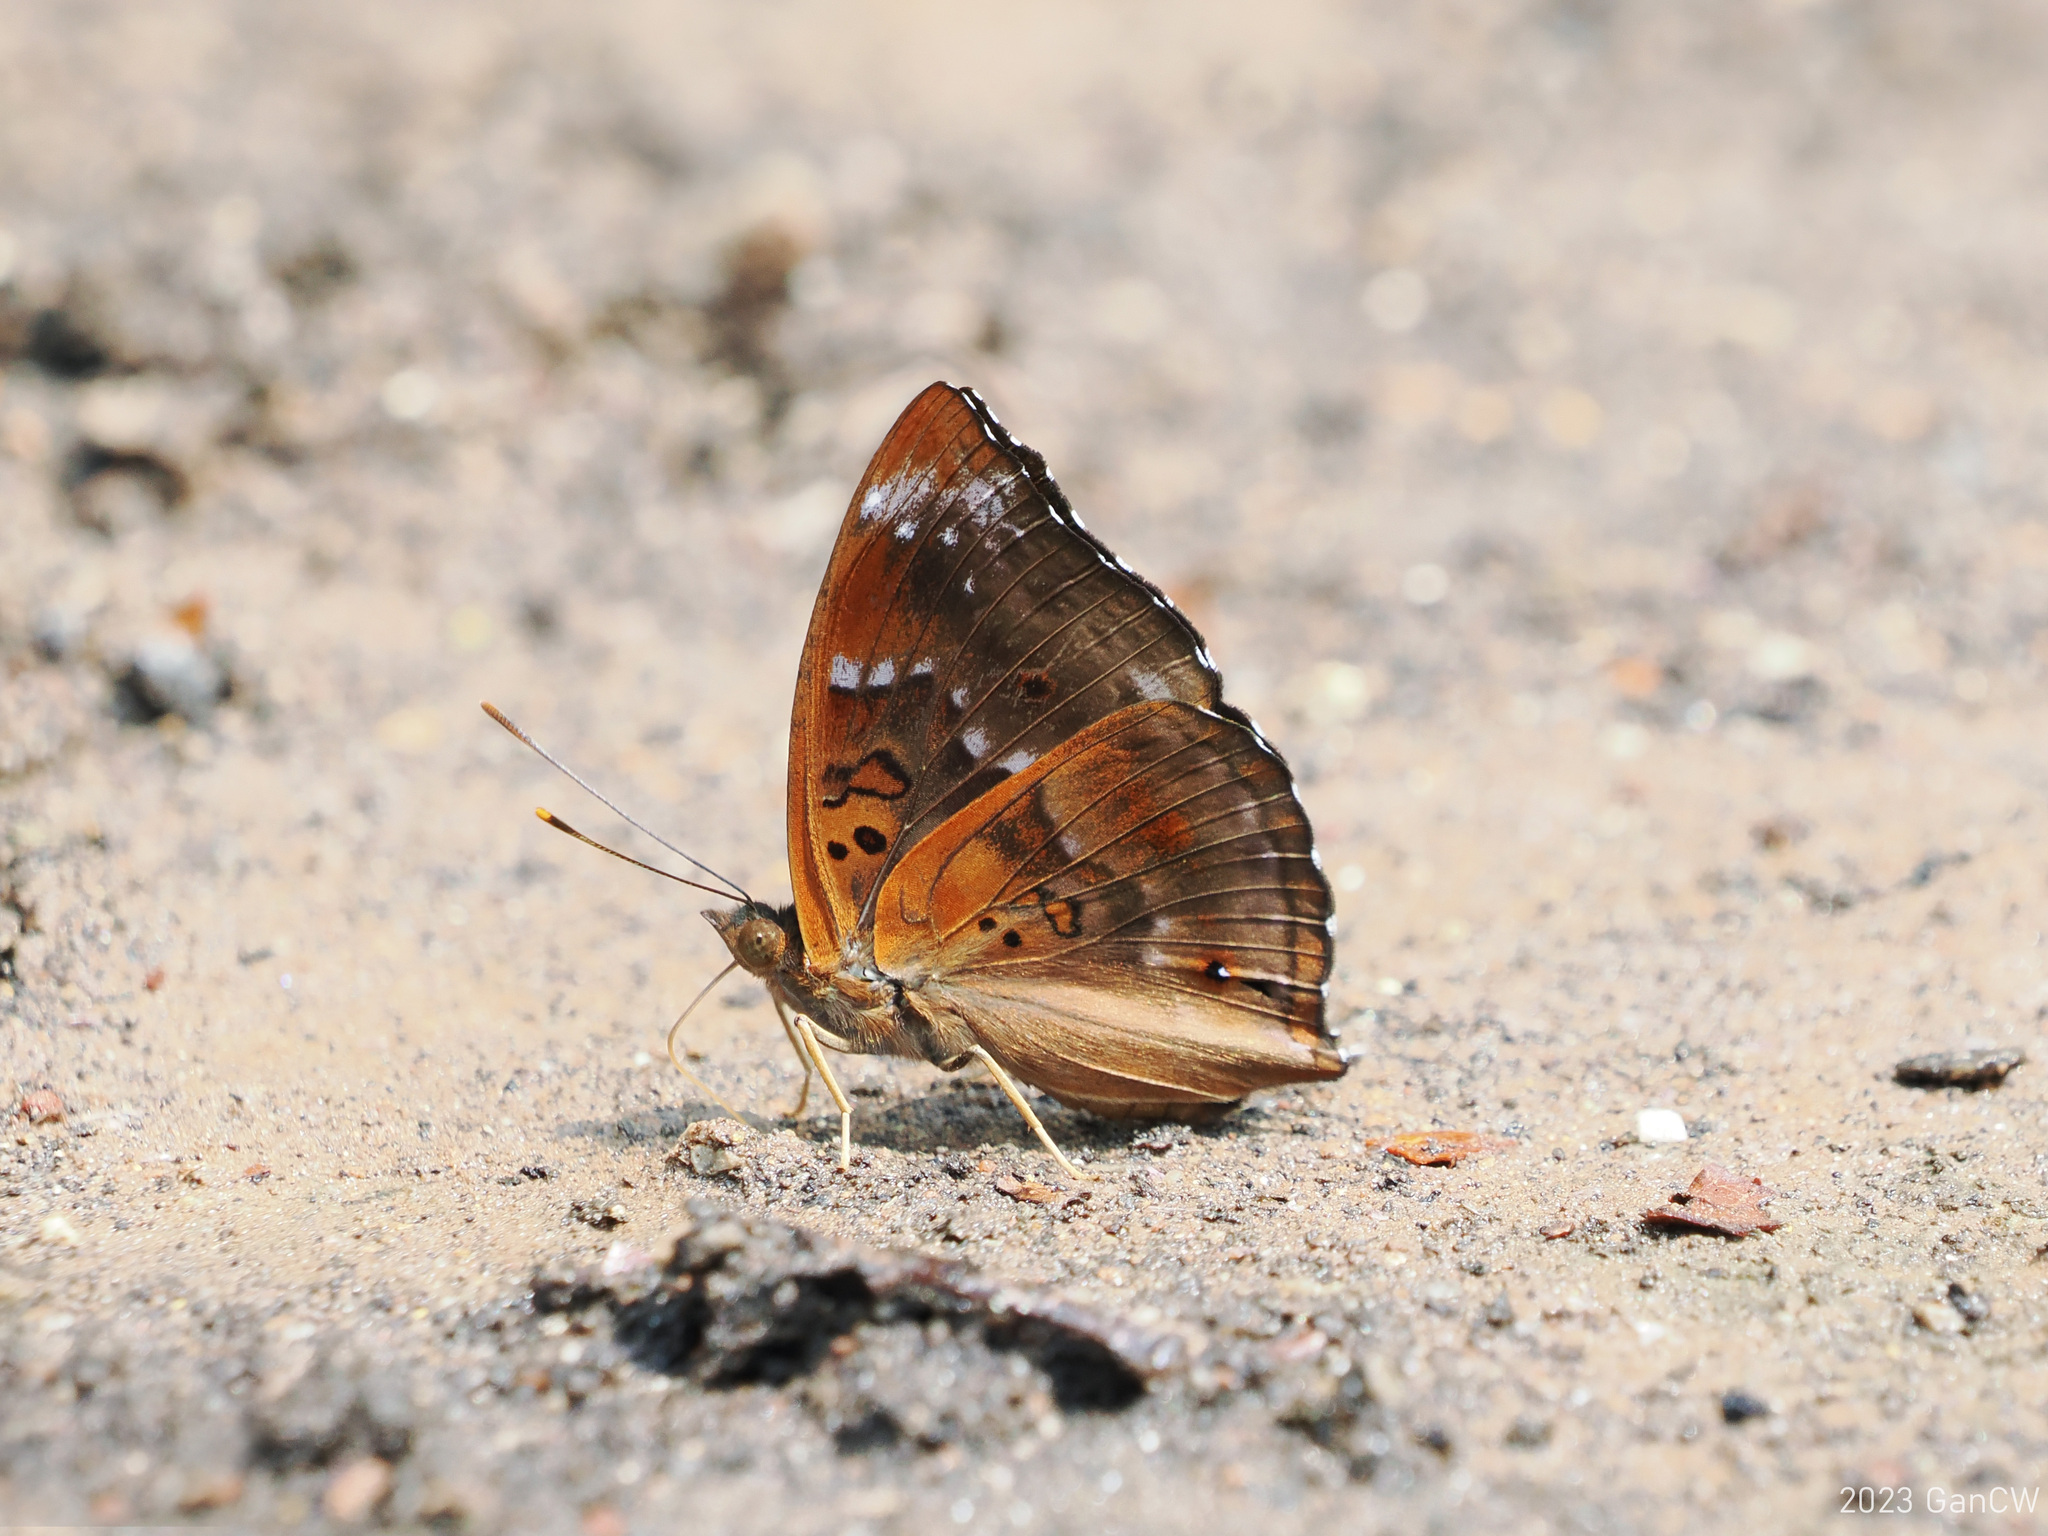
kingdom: Animalia
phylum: Arthropoda
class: Insecta
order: Lepidoptera
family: Nymphalidae
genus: Apatura
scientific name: Apatura Rohana spec
